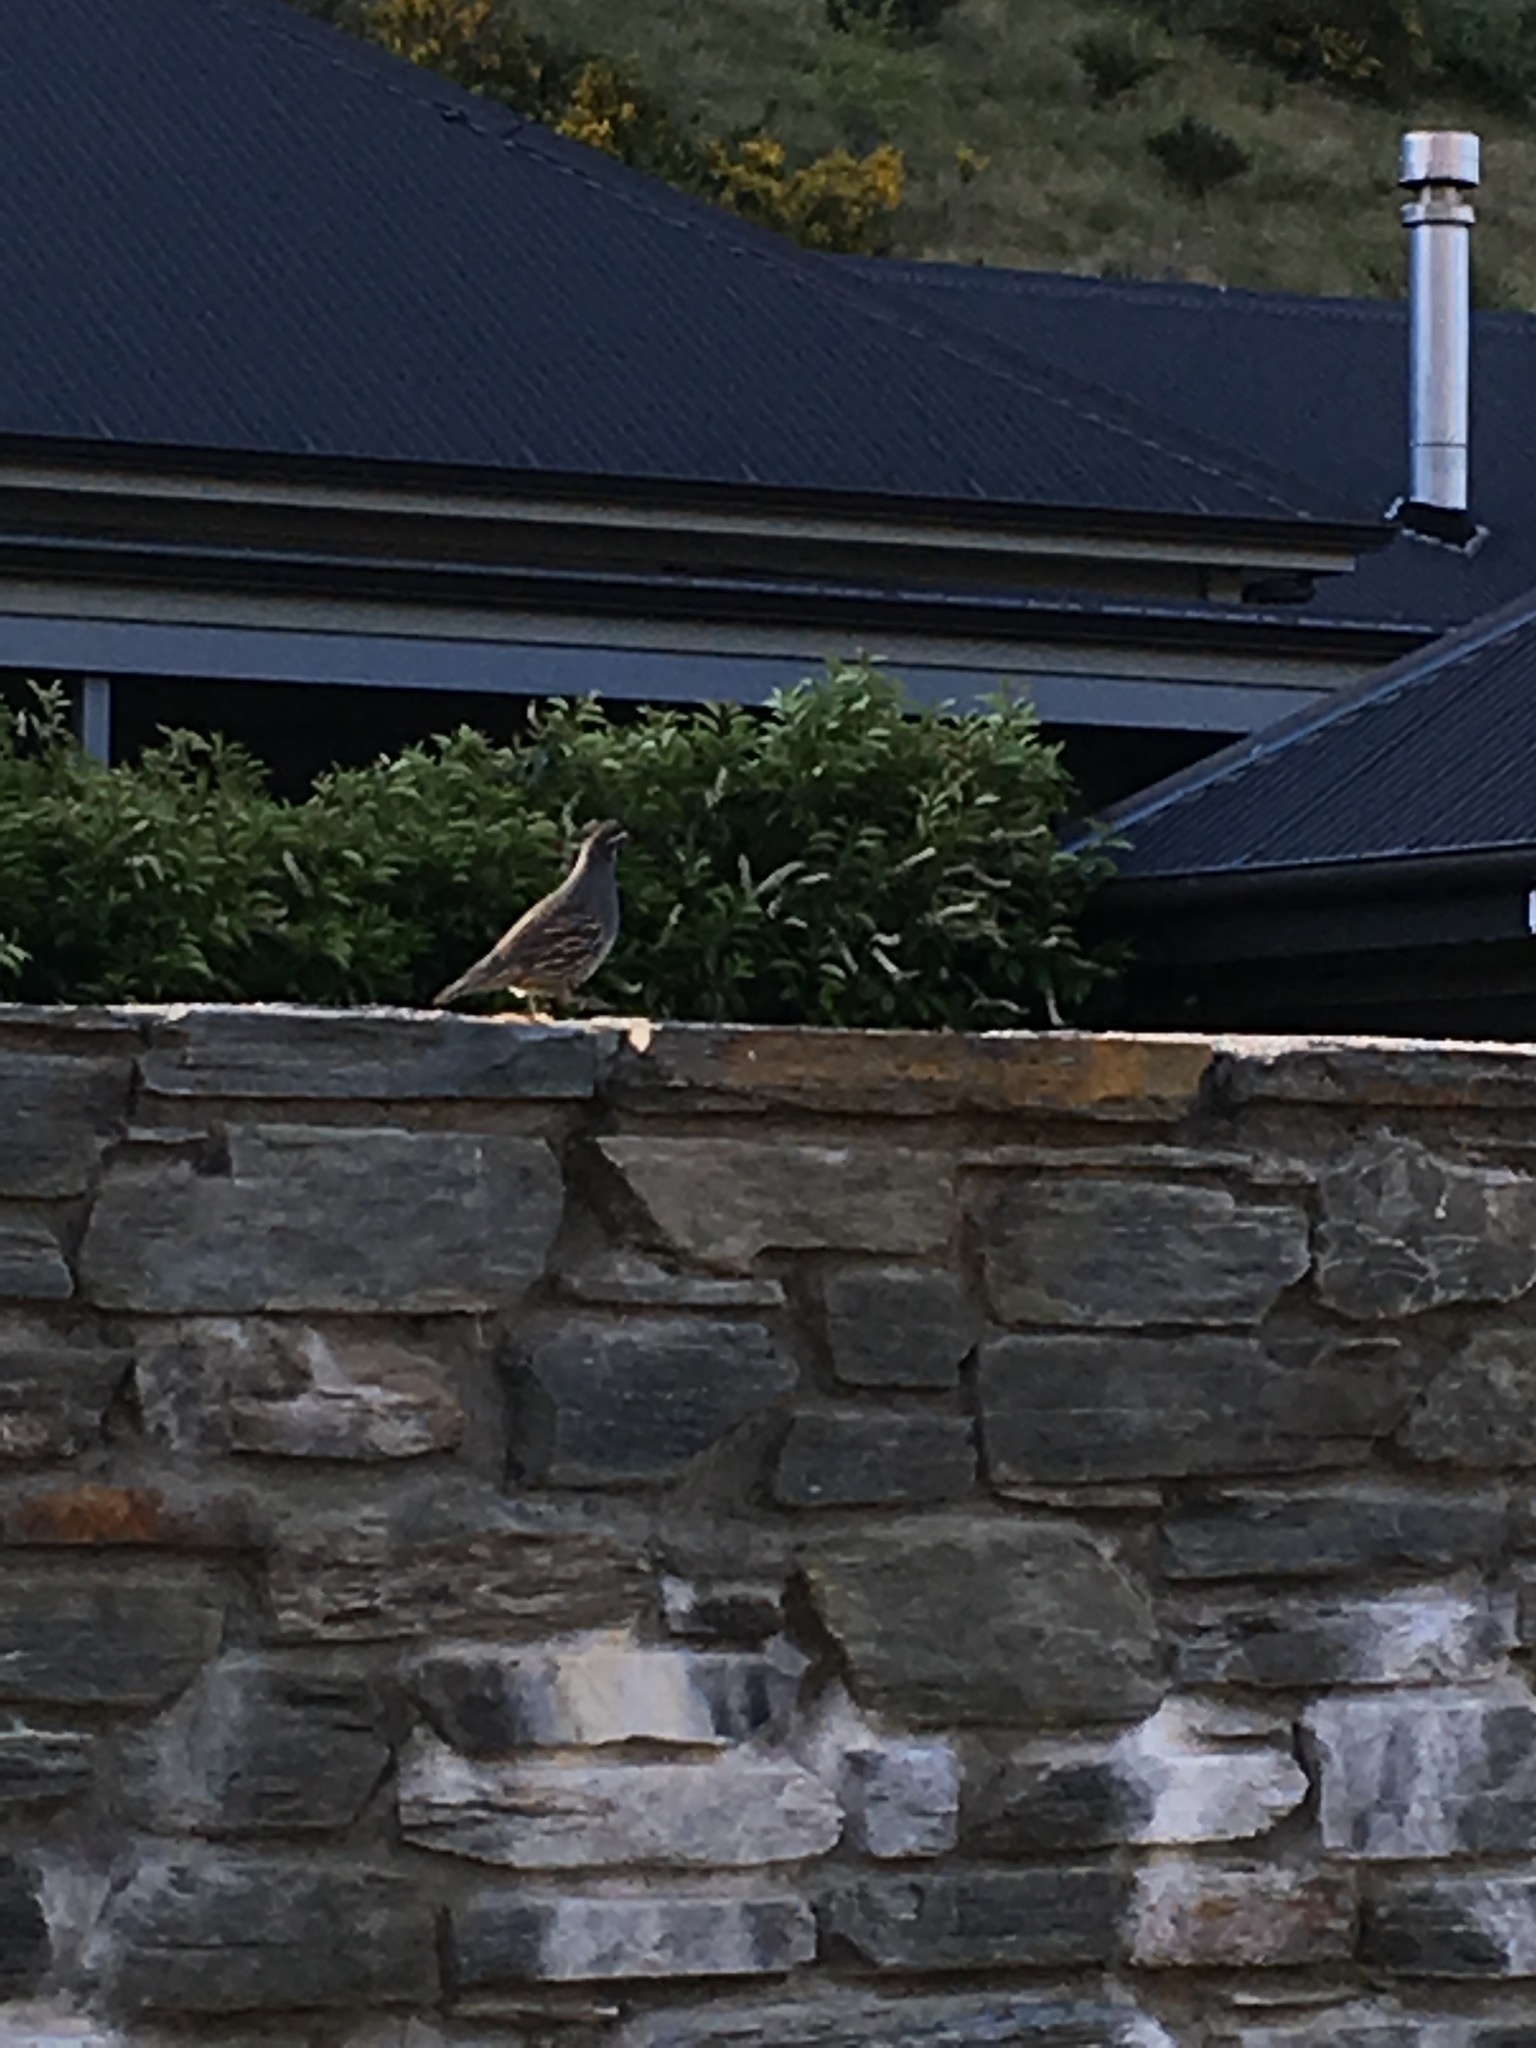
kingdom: Animalia
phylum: Chordata
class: Aves
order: Galliformes
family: Odontophoridae
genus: Callipepla
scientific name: Callipepla californica
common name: California quail
